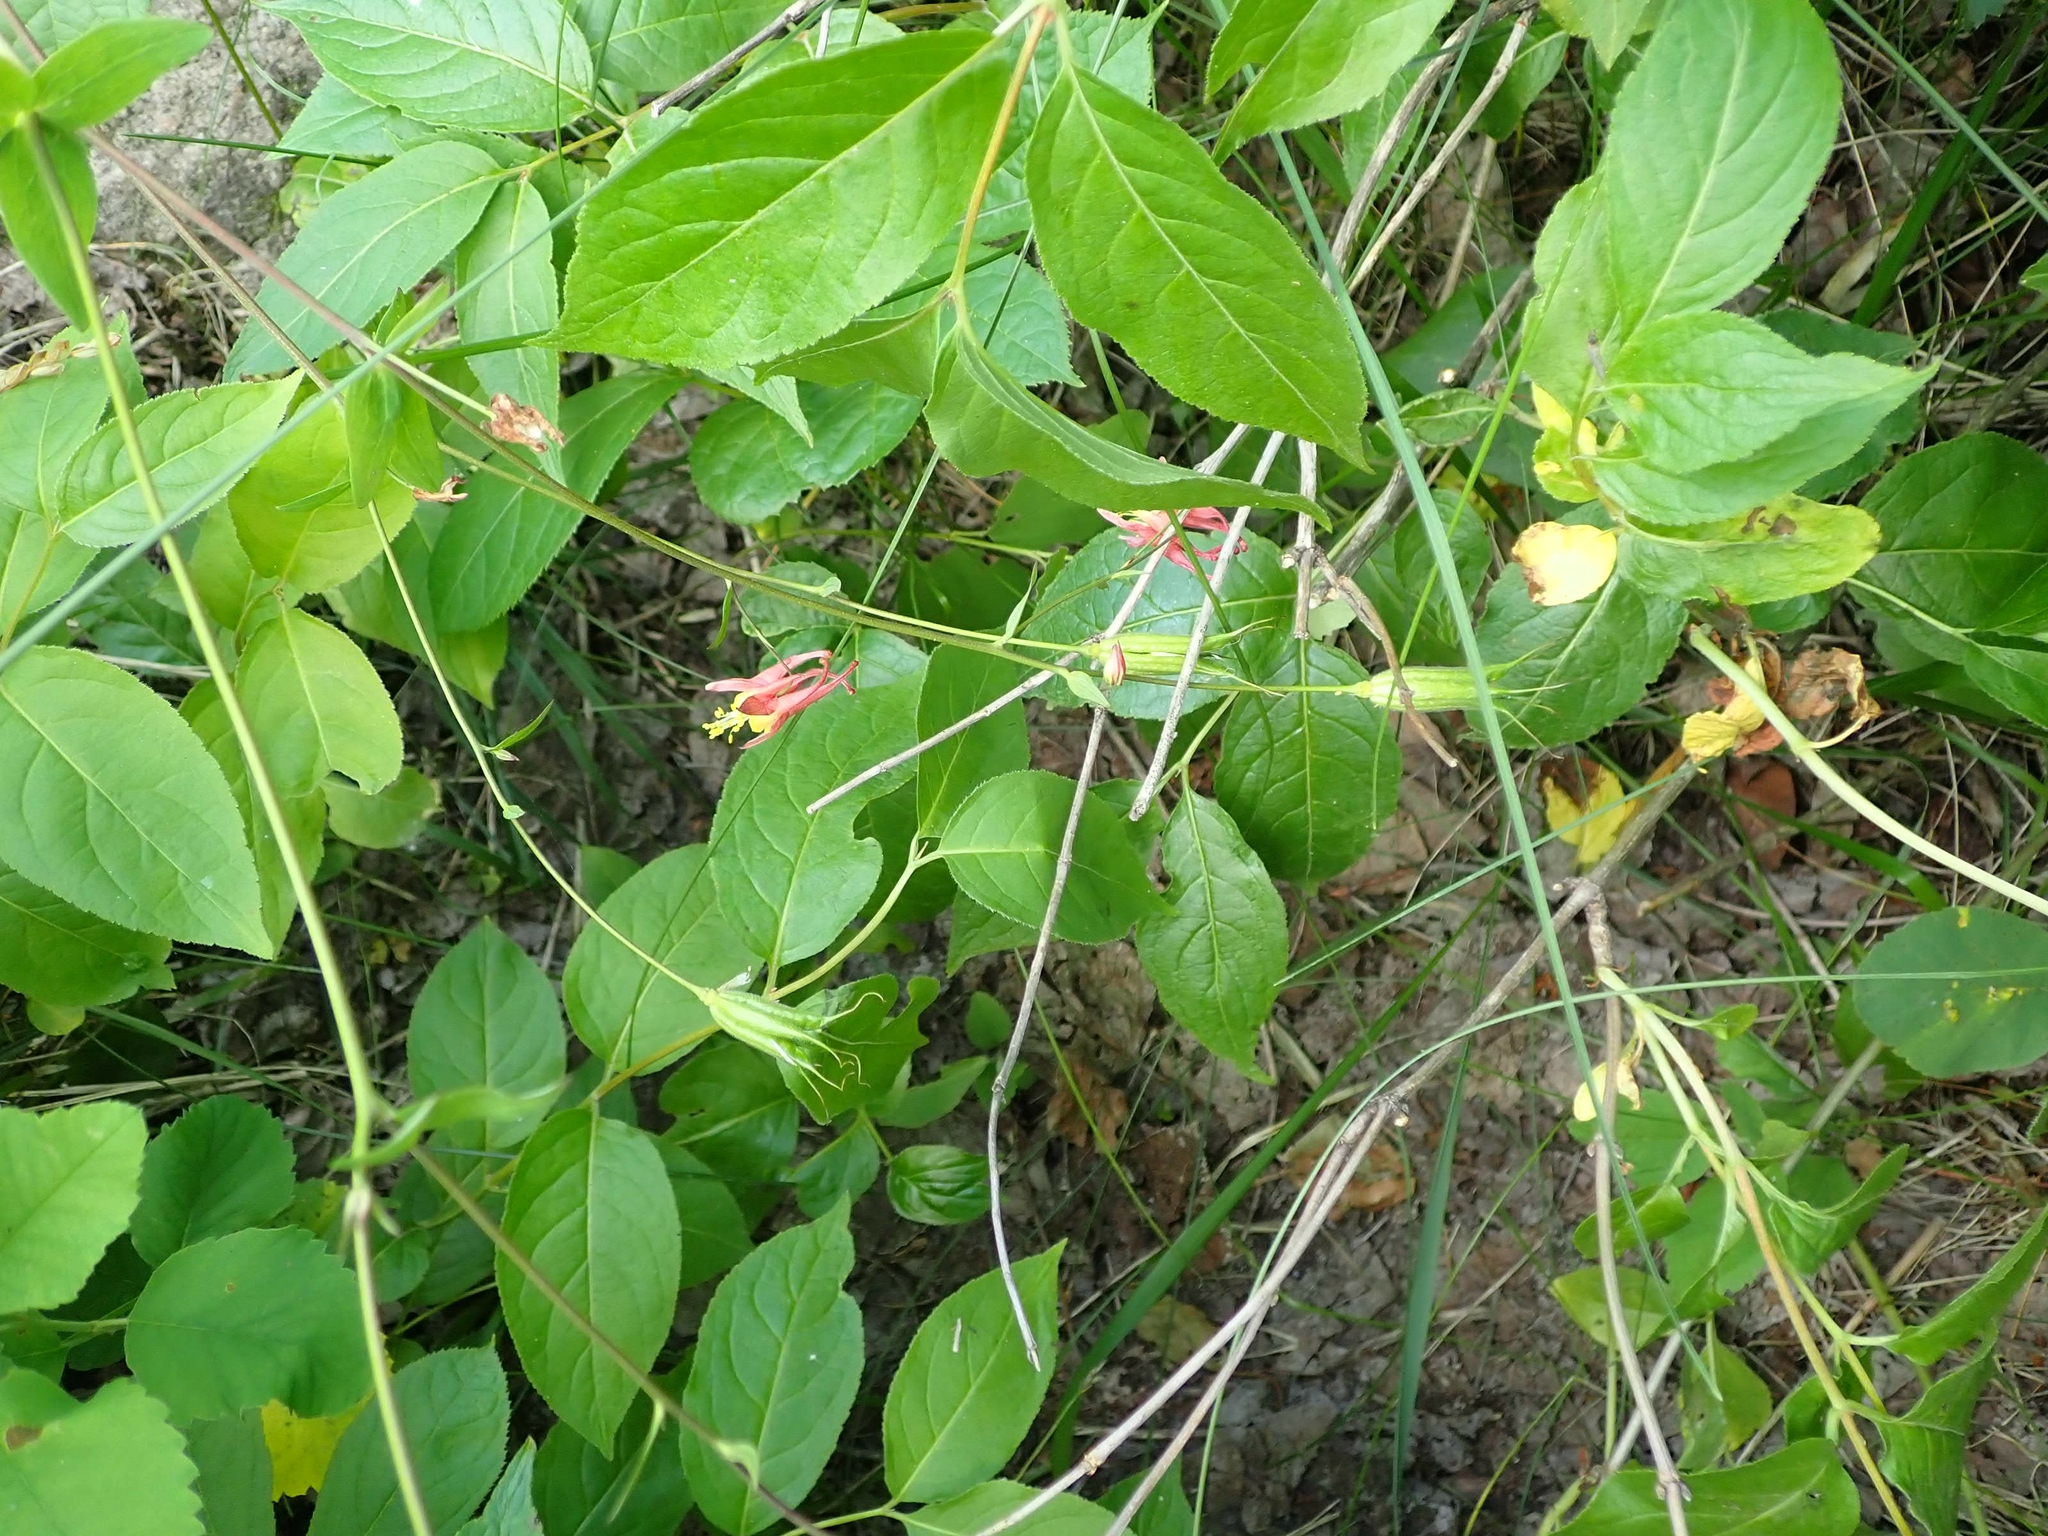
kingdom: Plantae
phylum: Tracheophyta
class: Magnoliopsida
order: Ranunculales
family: Ranunculaceae
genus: Aquilegia
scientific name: Aquilegia canadensis
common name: American columbine
